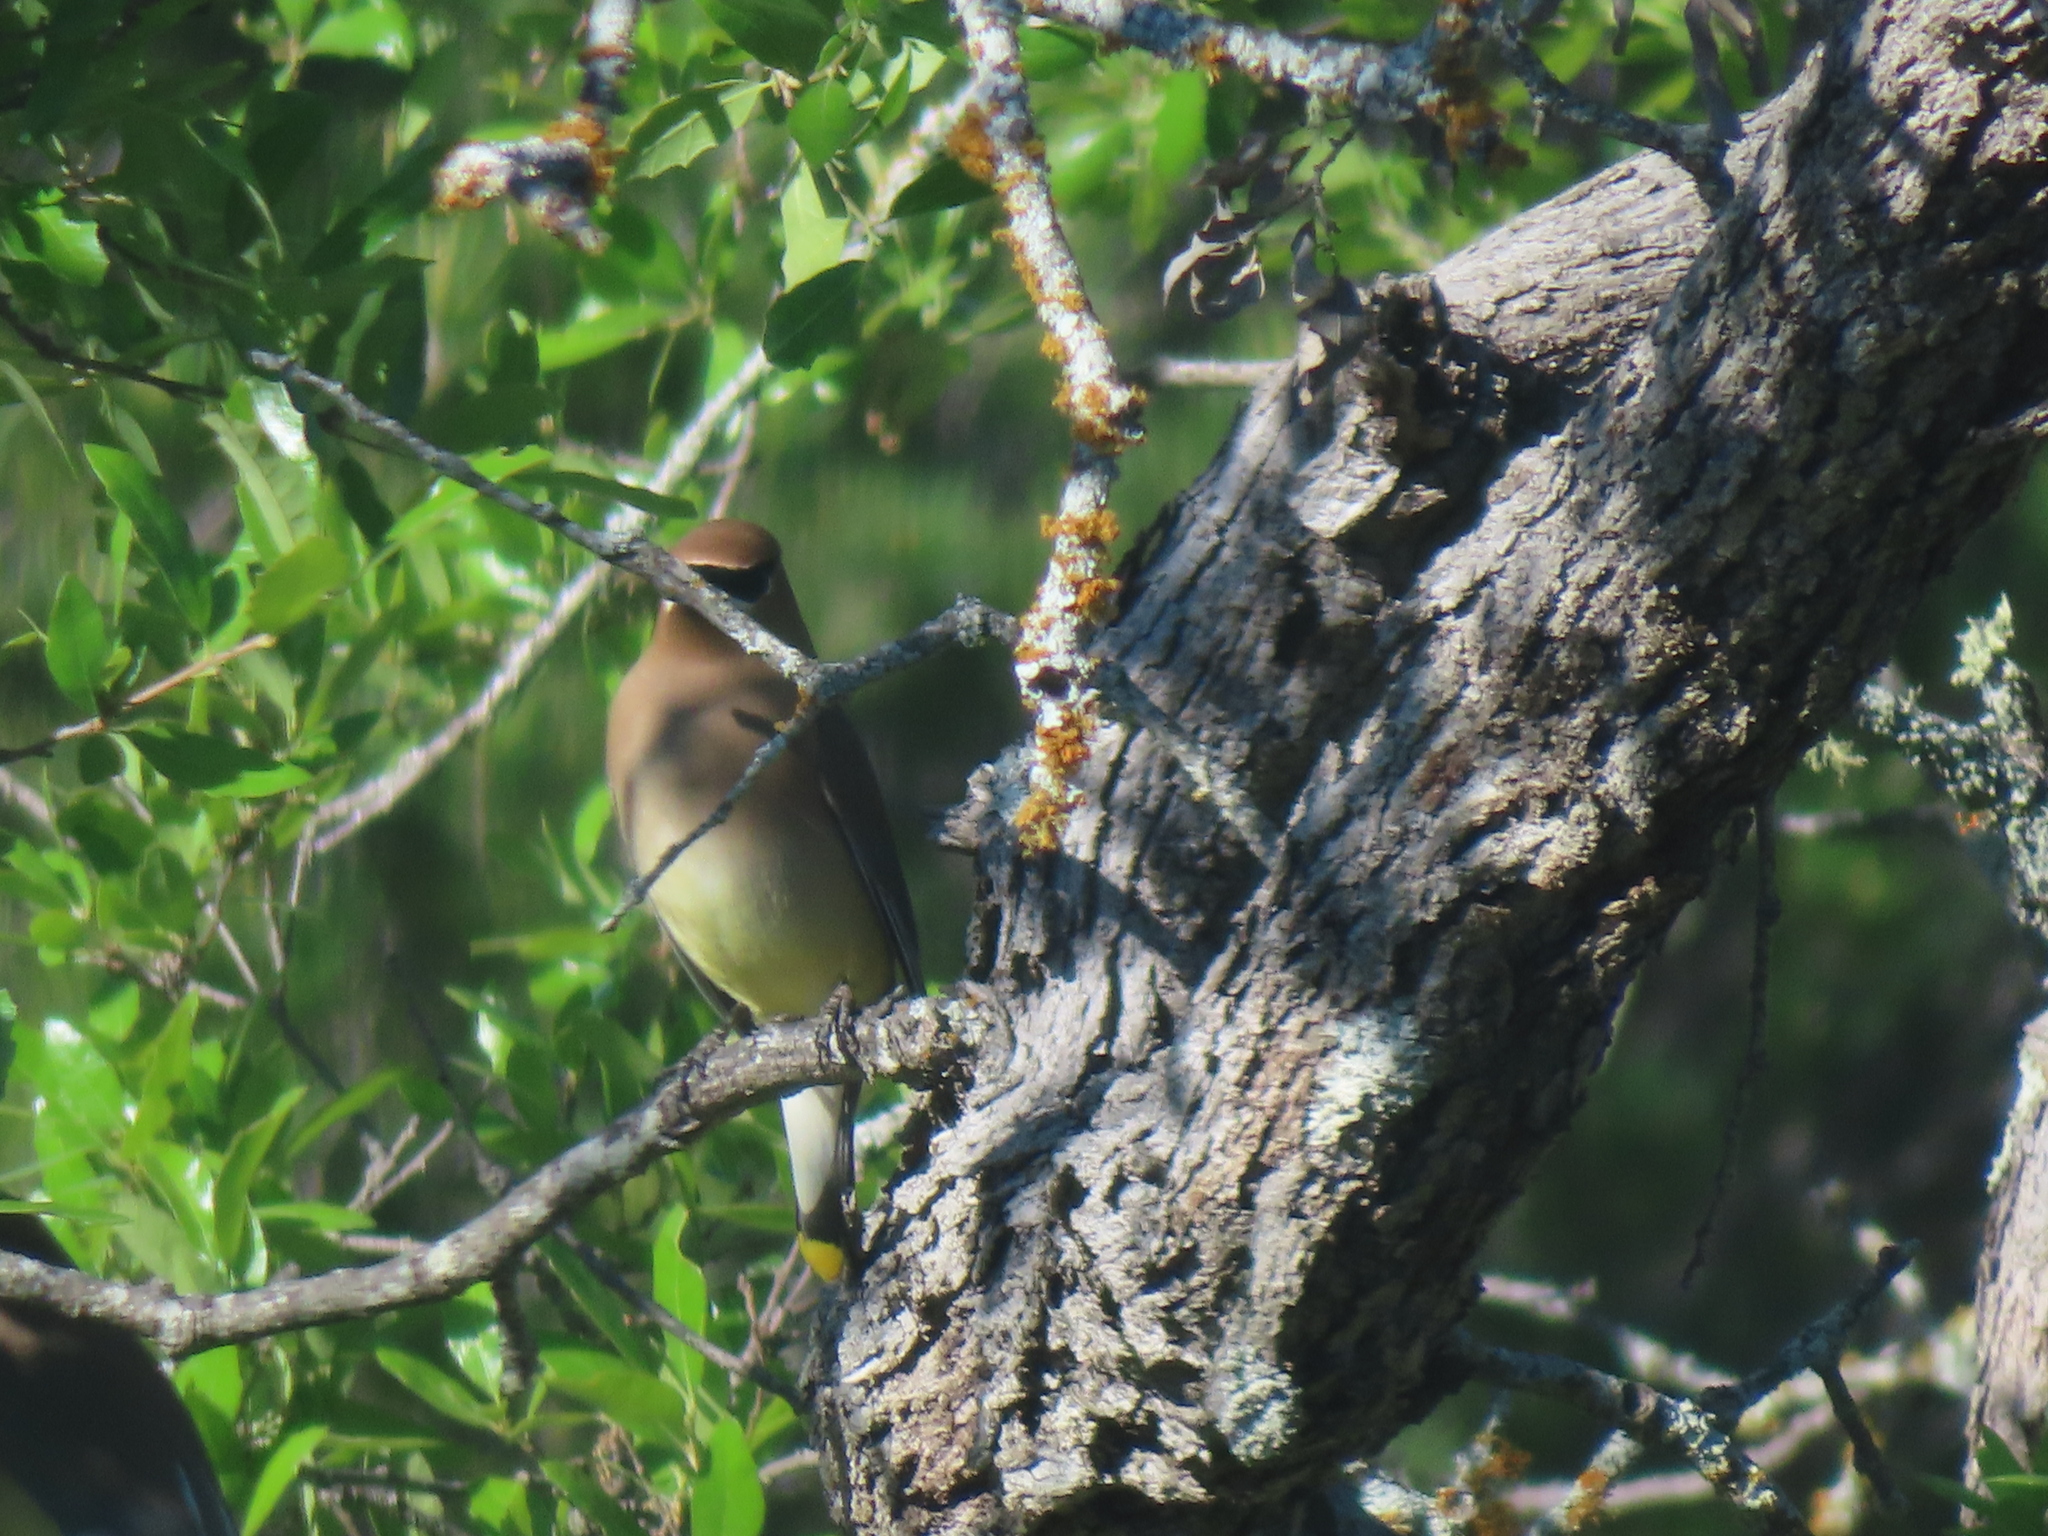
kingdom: Animalia
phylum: Chordata
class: Aves
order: Passeriformes
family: Bombycillidae
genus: Bombycilla
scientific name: Bombycilla cedrorum
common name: Cedar waxwing
